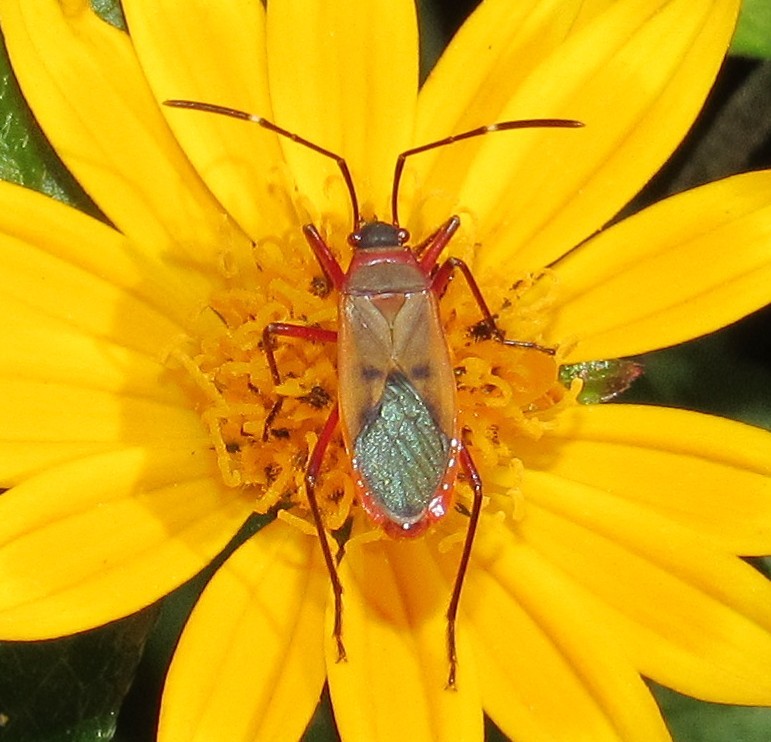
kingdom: Animalia
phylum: Arthropoda
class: Insecta
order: Hemiptera
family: Pyrrhocoridae
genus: Dysdercus
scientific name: Dysdercus ruficollis
